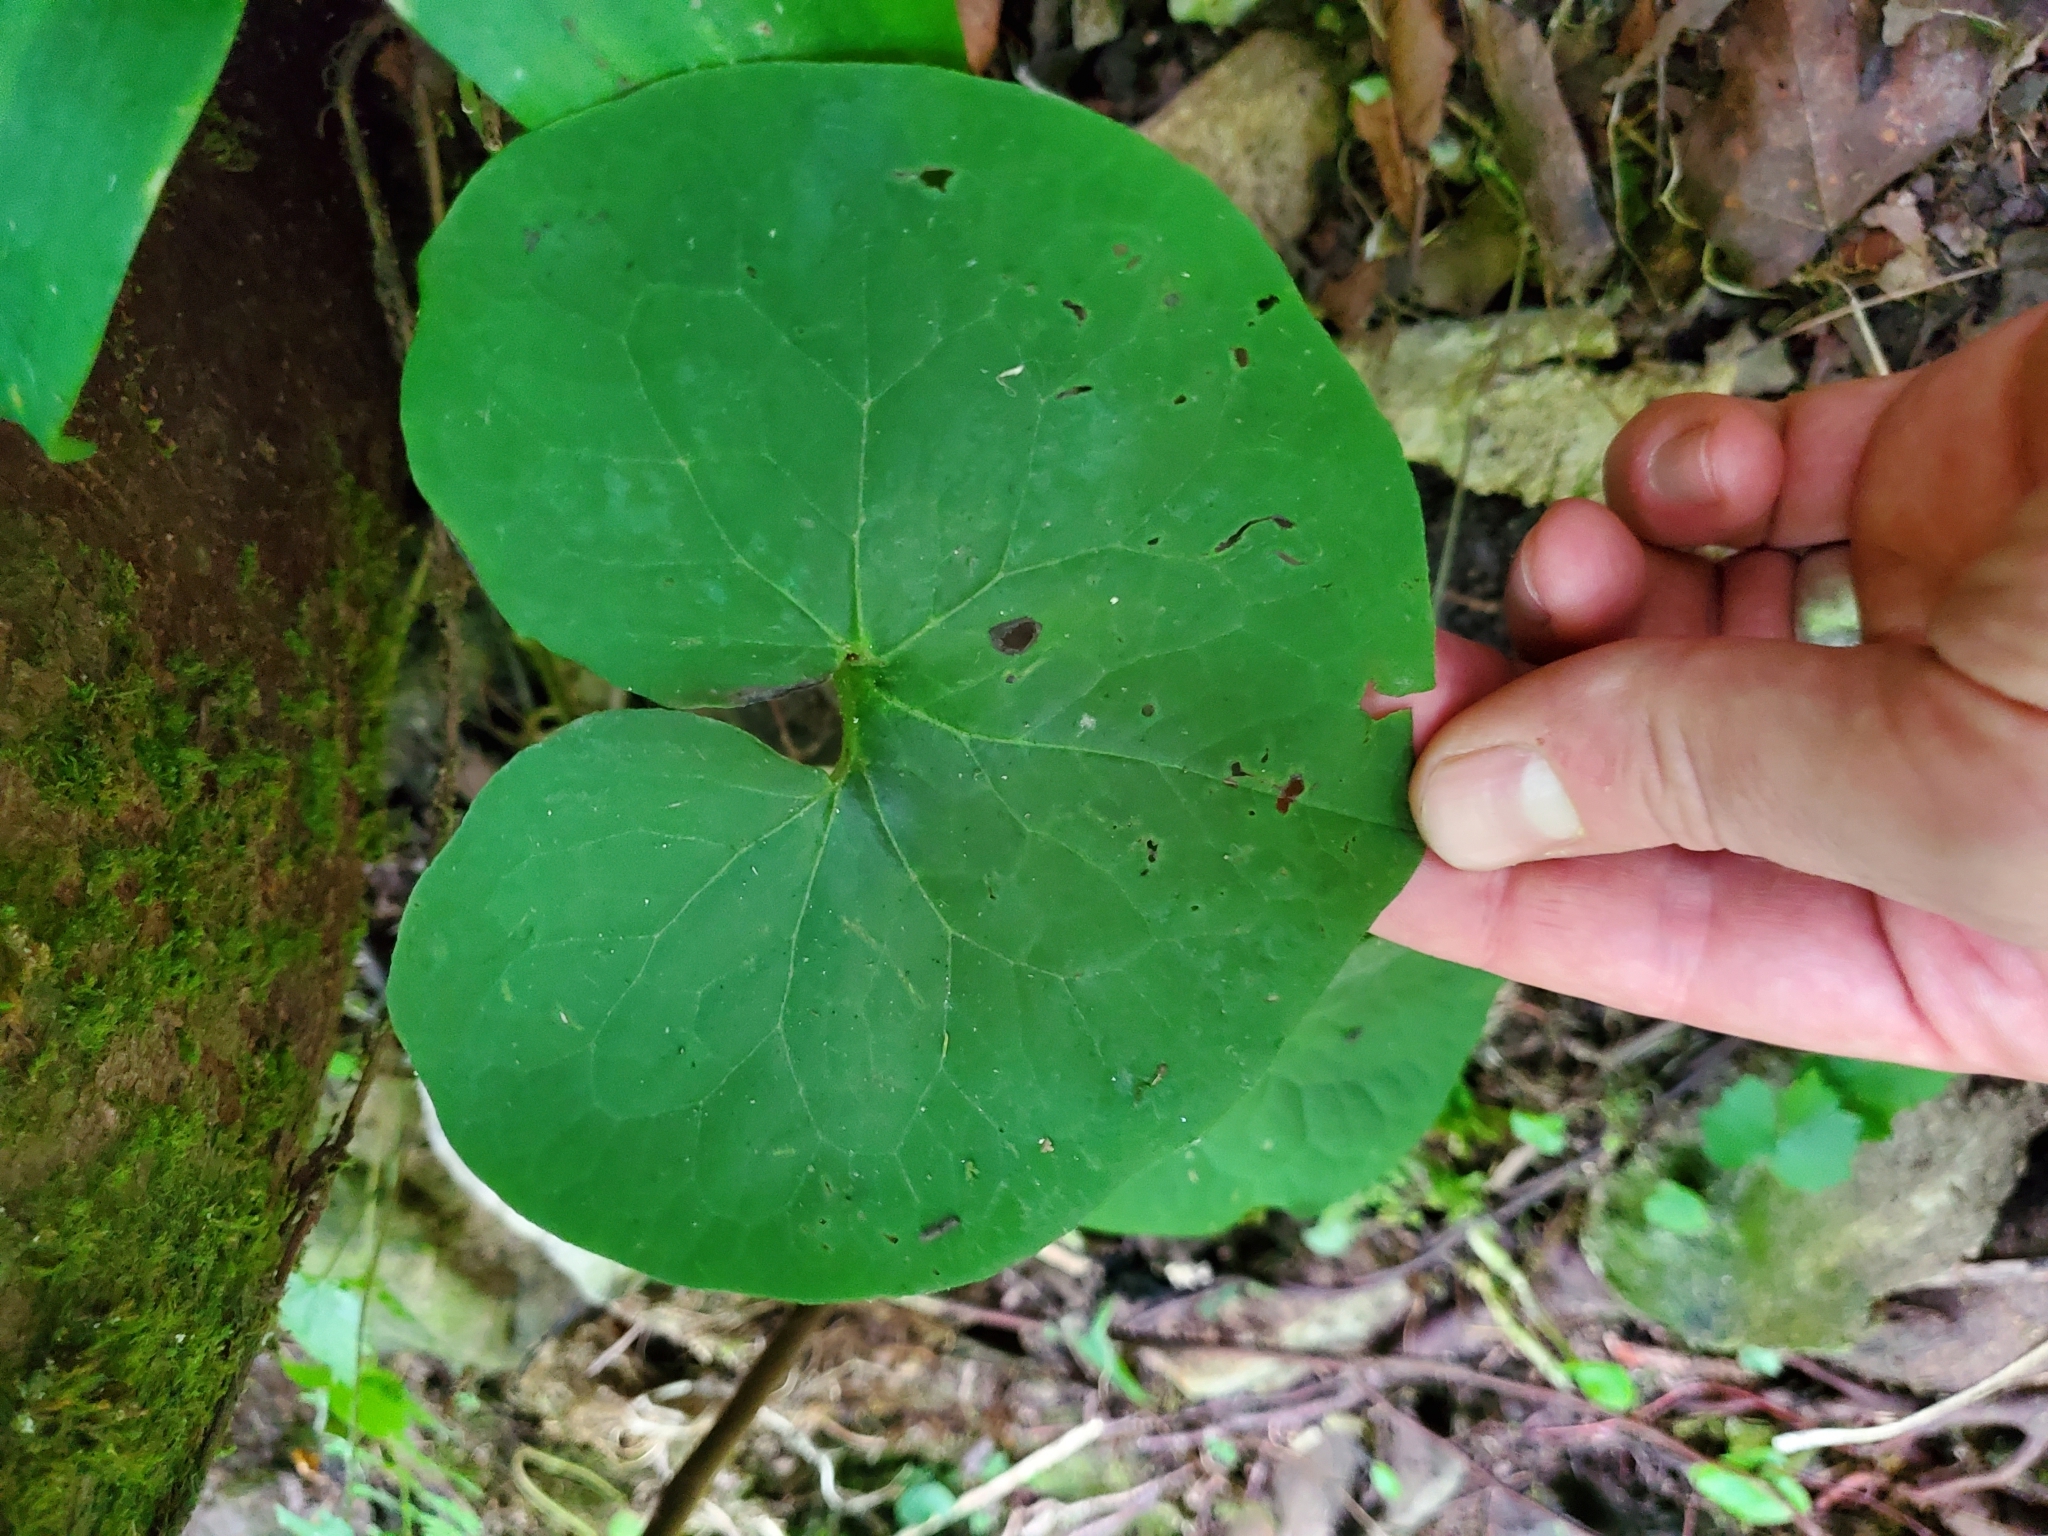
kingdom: Plantae
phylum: Tracheophyta
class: Magnoliopsida
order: Piperales
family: Aristolochiaceae
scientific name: Aristolochiaceae
